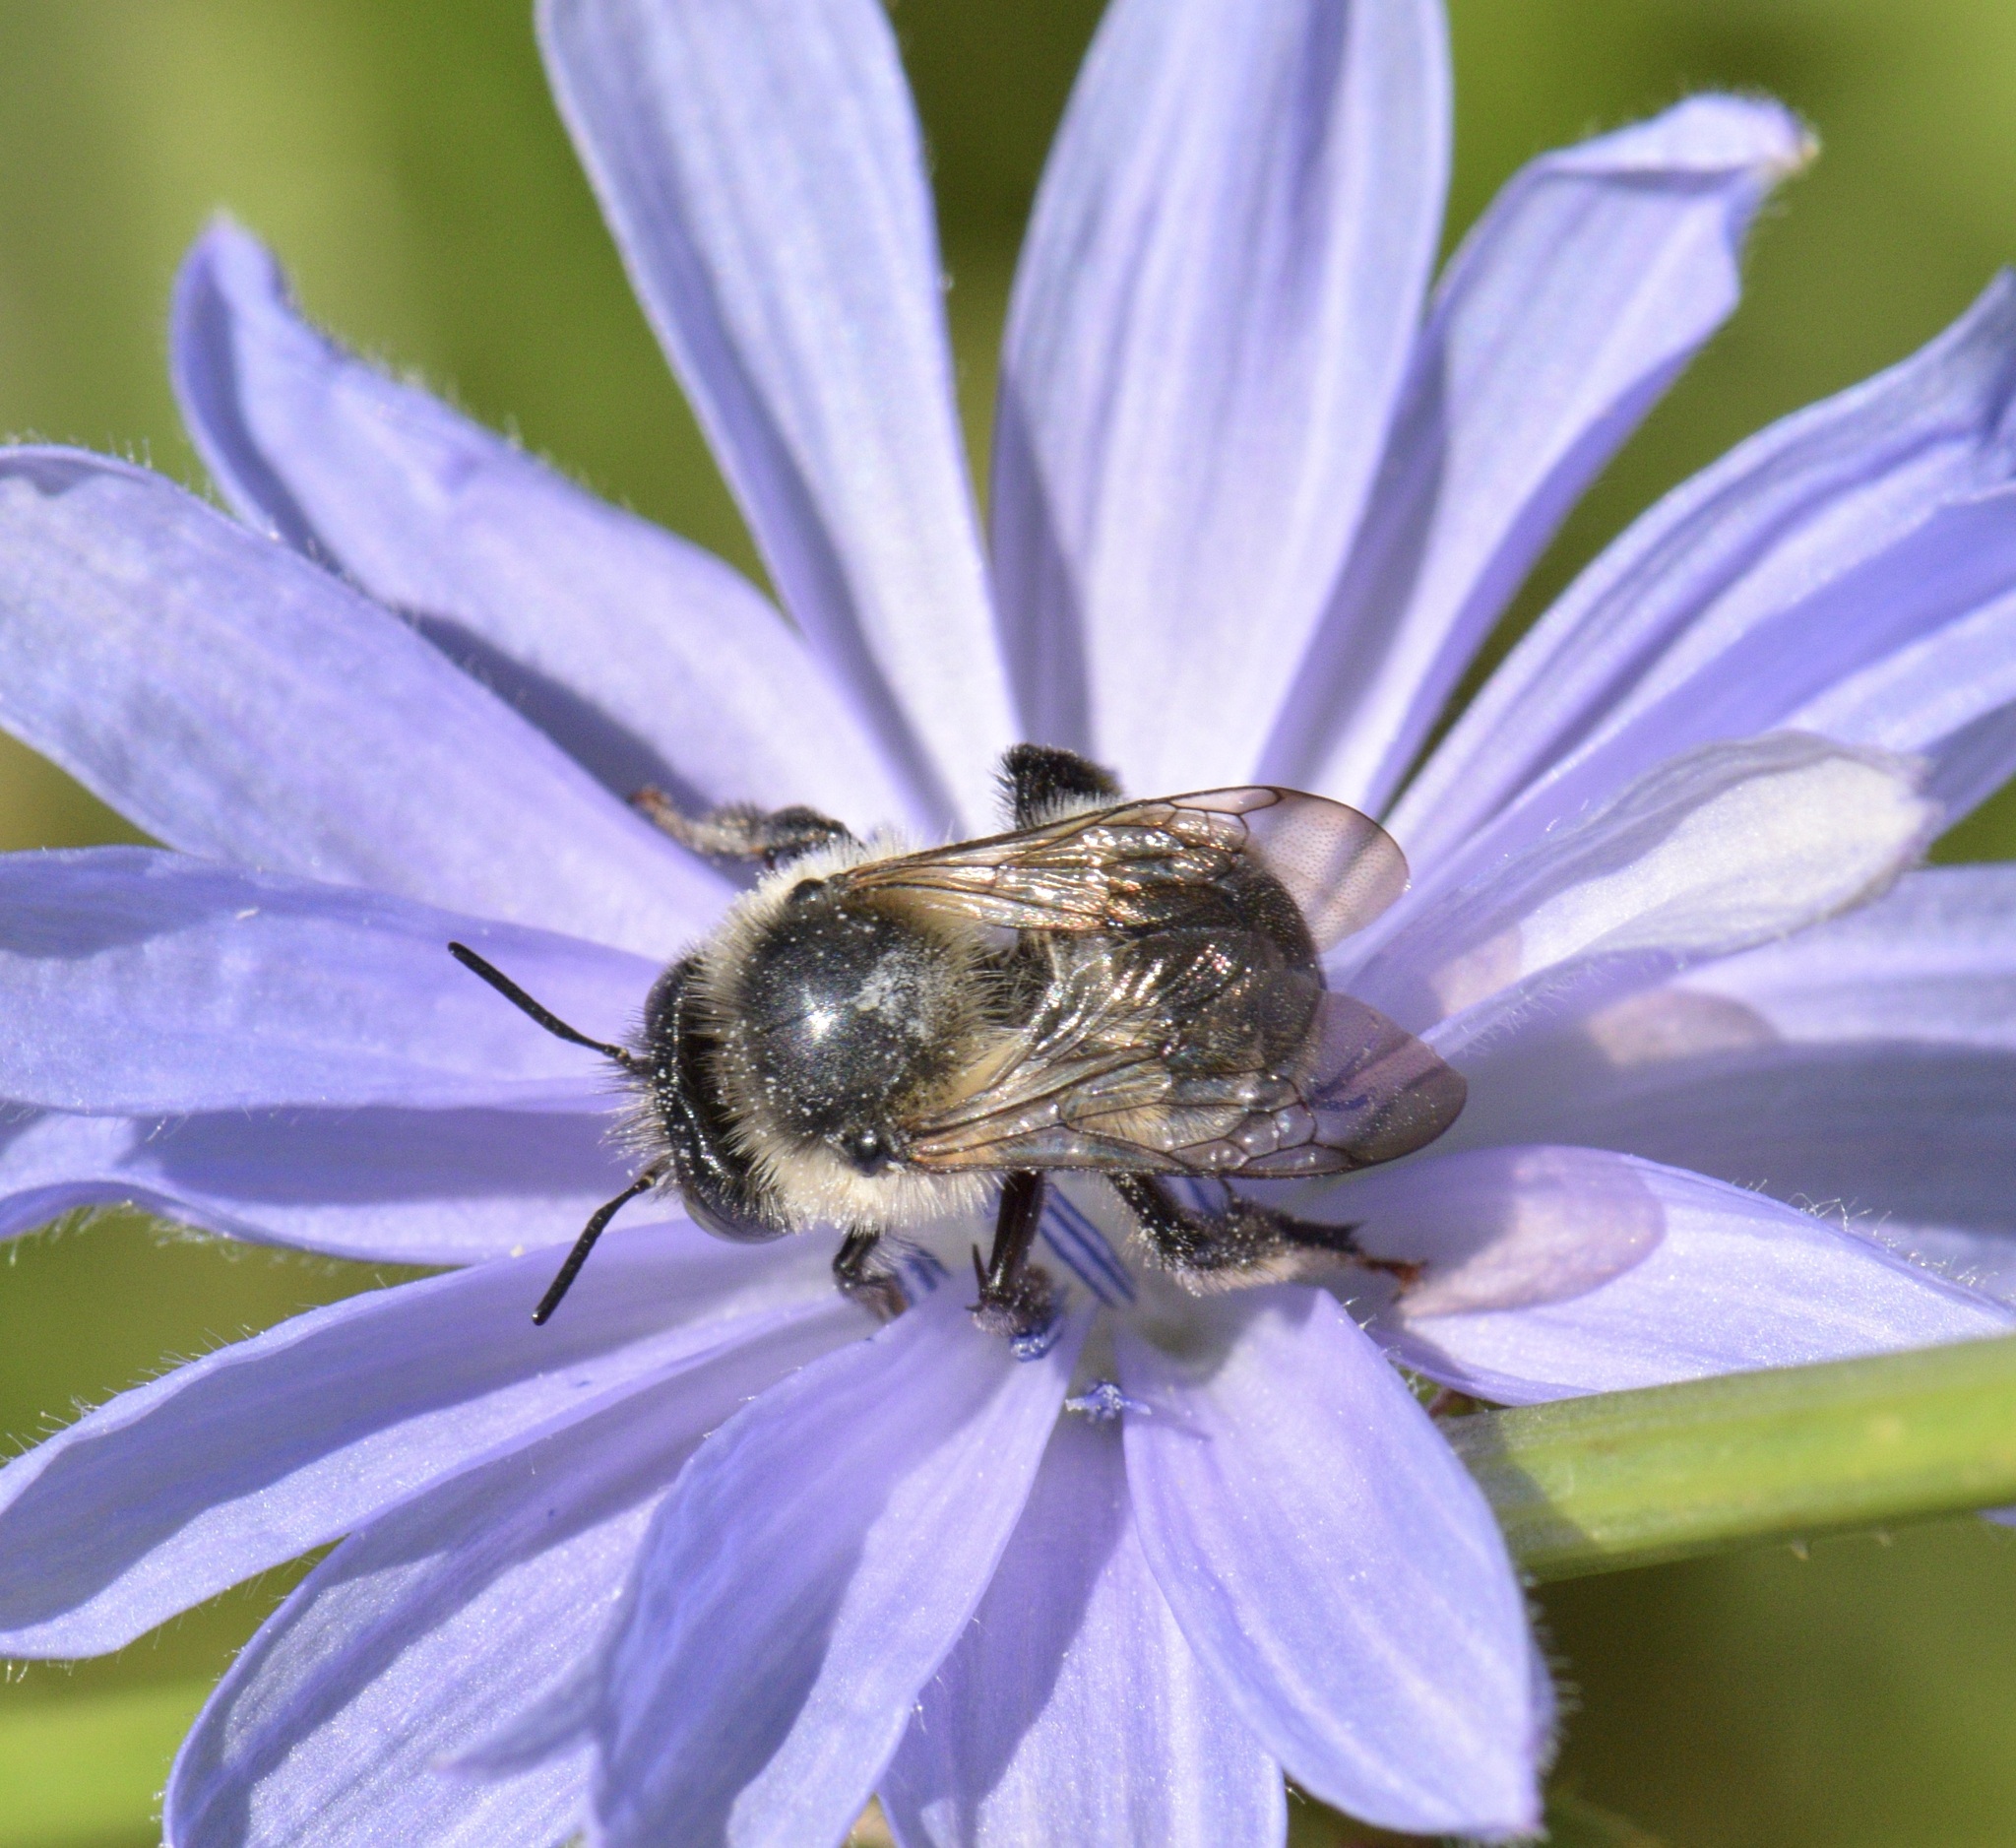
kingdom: Animalia
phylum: Arthropoda
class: Insecta
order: Hymenoptera
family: Apidae
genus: Anthophora
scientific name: Anthophora terminalis
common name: Orange-tipped wood-digger bee
